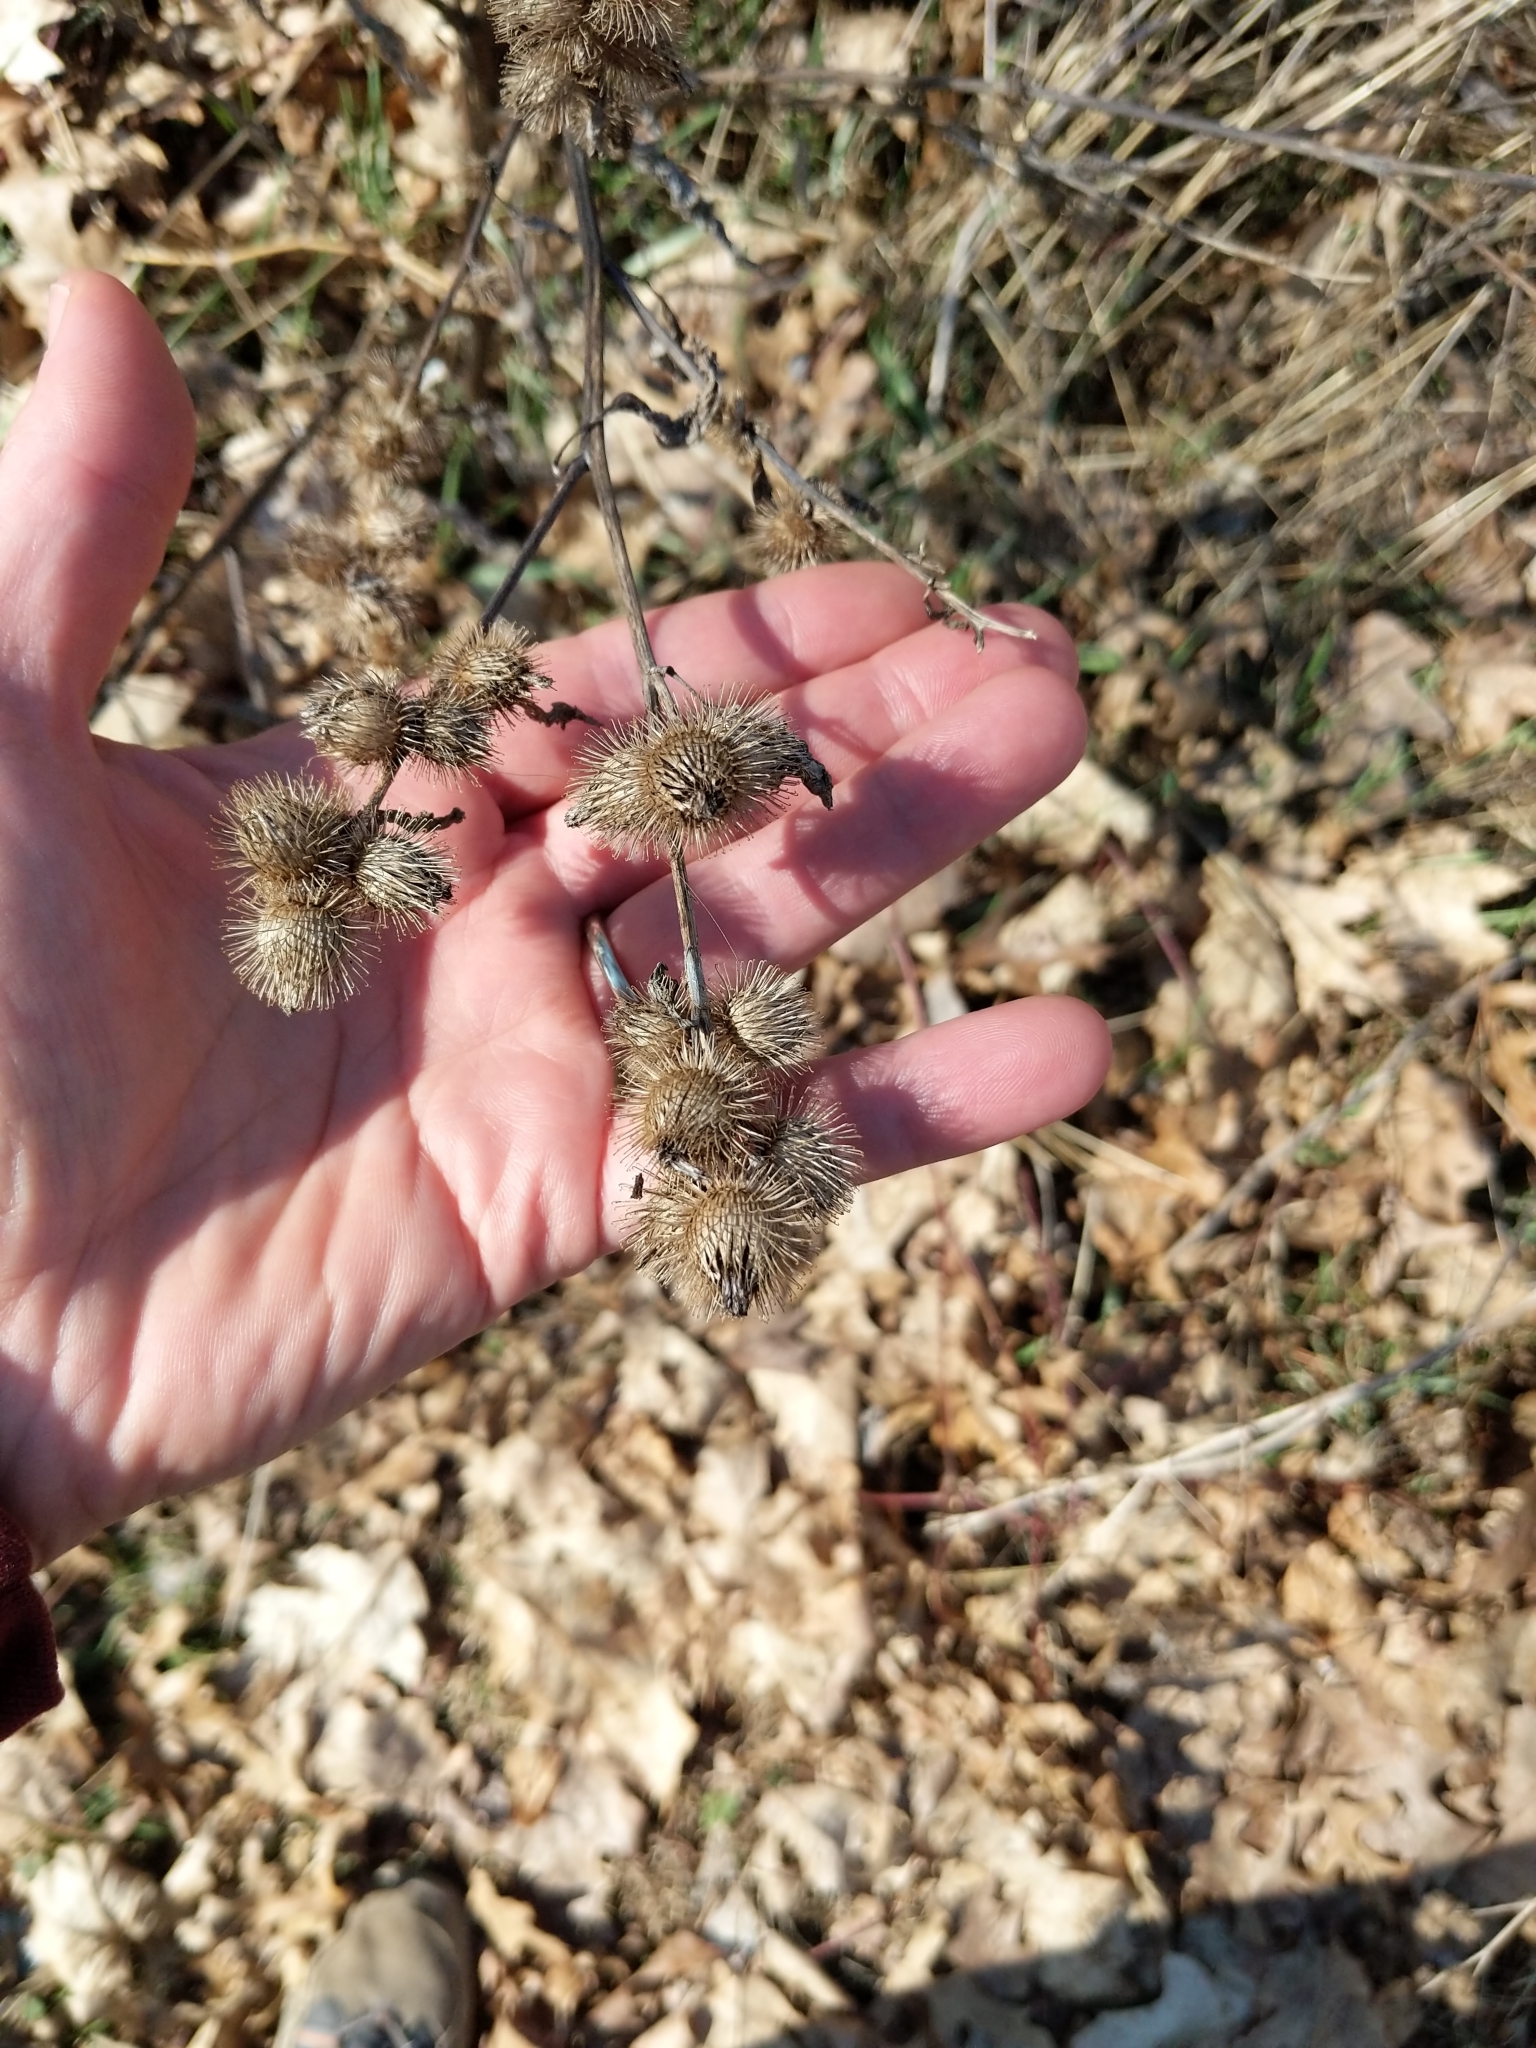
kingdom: Plantae
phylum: Tracheophyta
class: Magnoliopsida
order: Asterales
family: Asteraceae
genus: Arctium
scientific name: Arctium minus
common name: Lesser burdock
